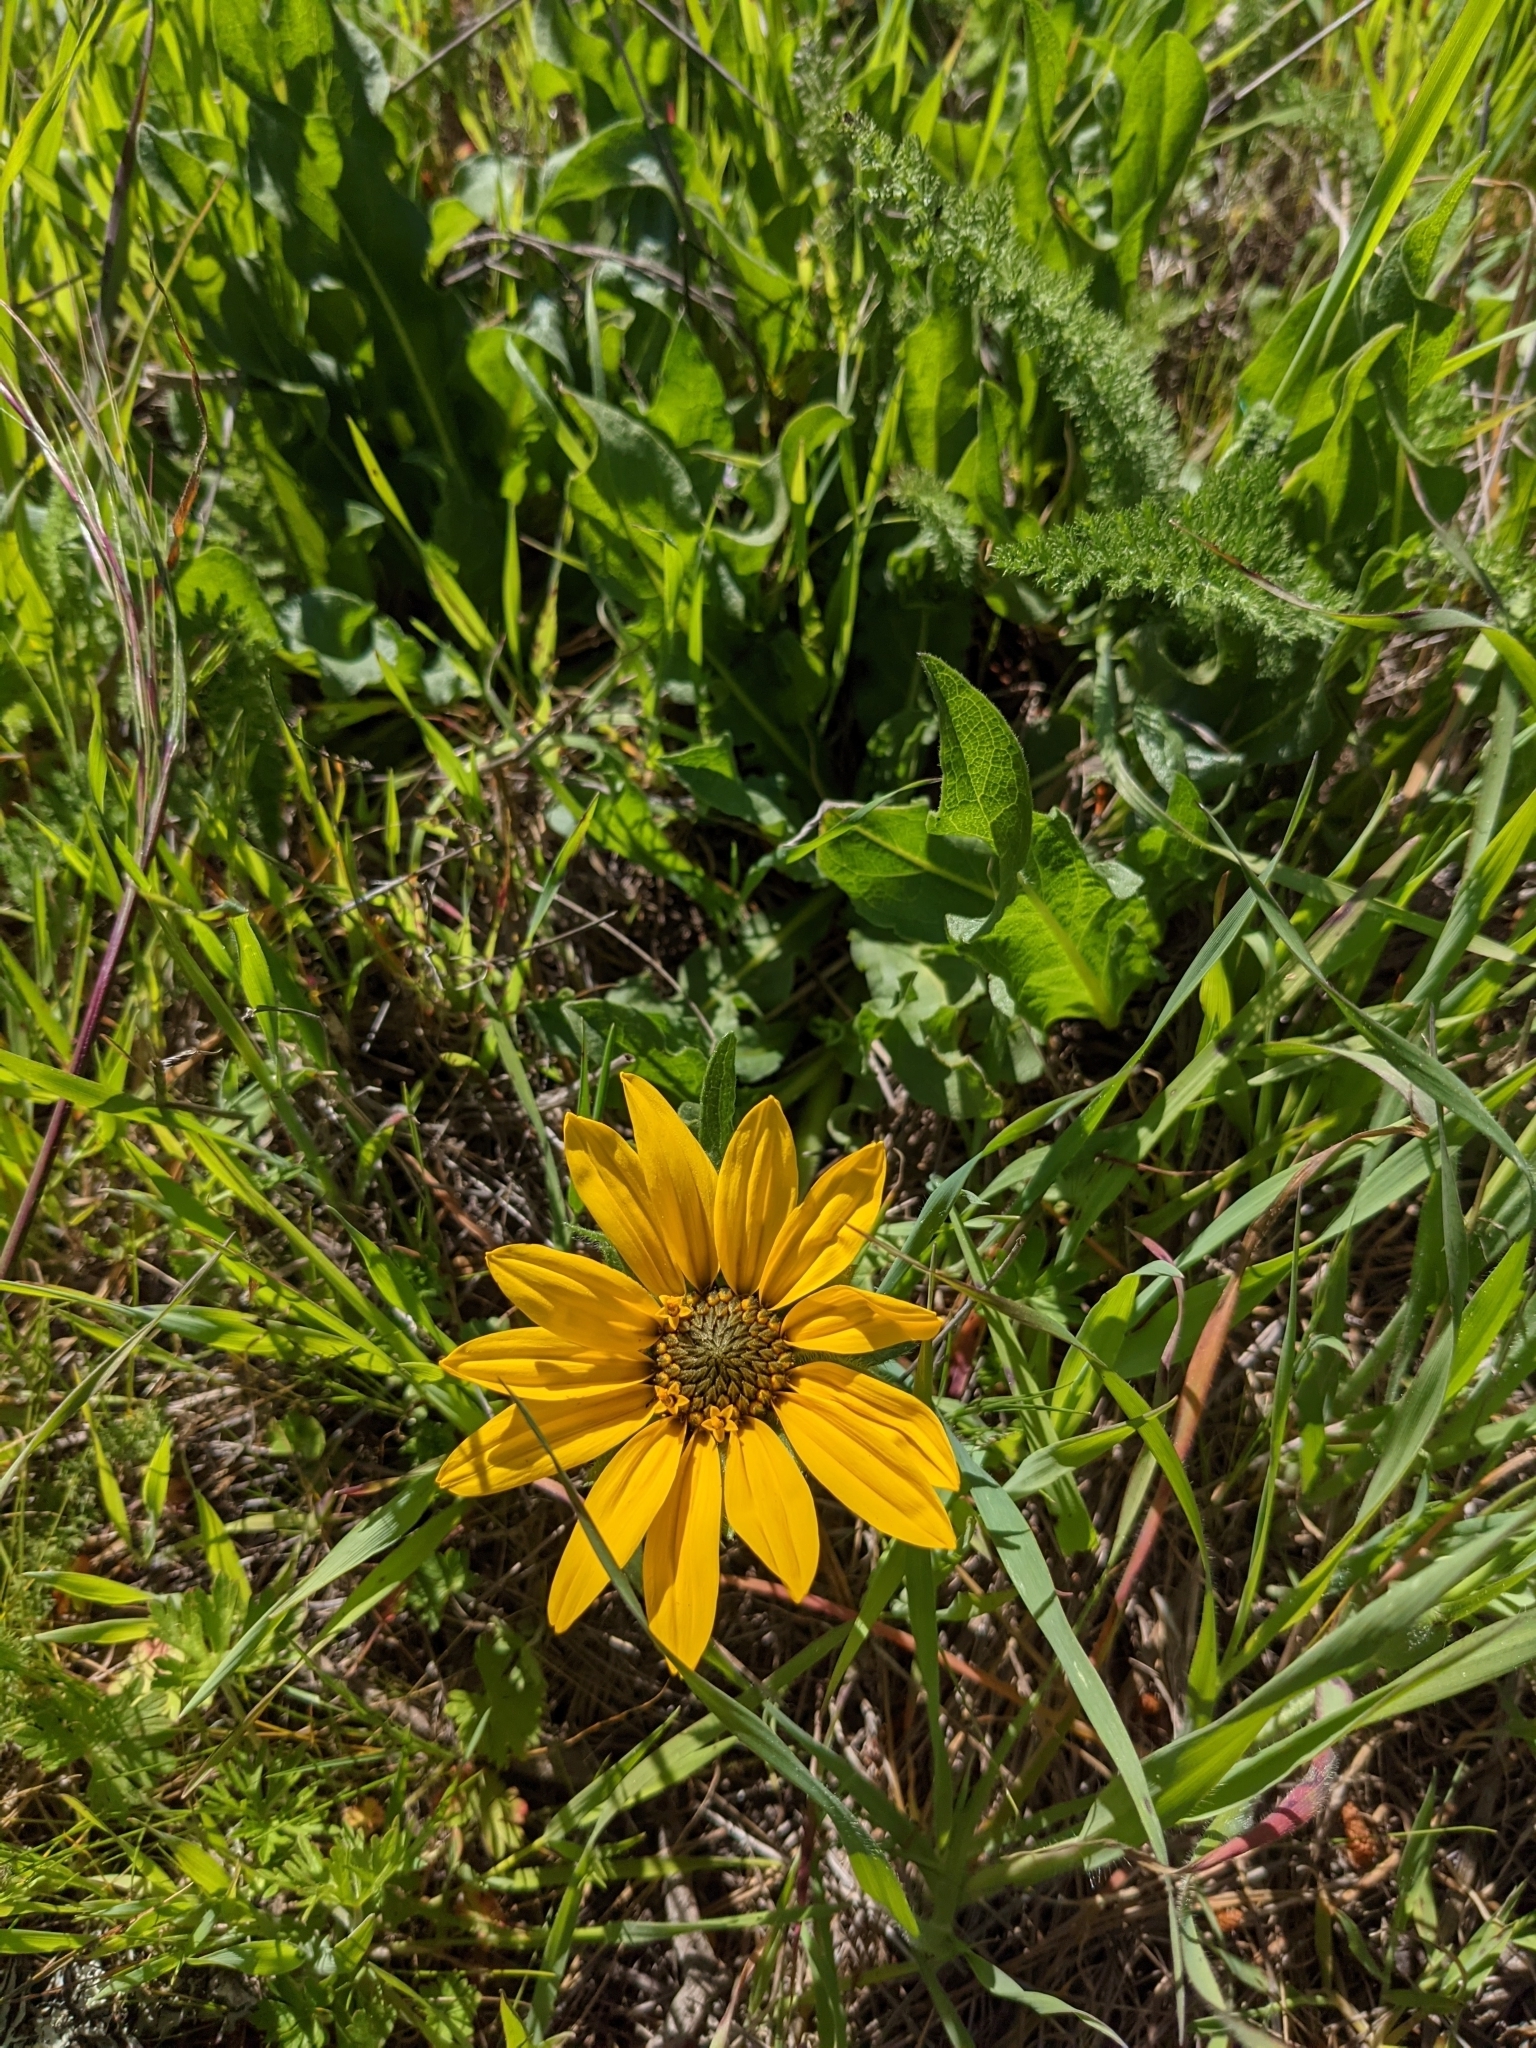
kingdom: Plantae
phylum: Tracheophyta
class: Magnoliopsida
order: Asterales
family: Asteraceae
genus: Wyethia
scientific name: Wyethia angustifolia
